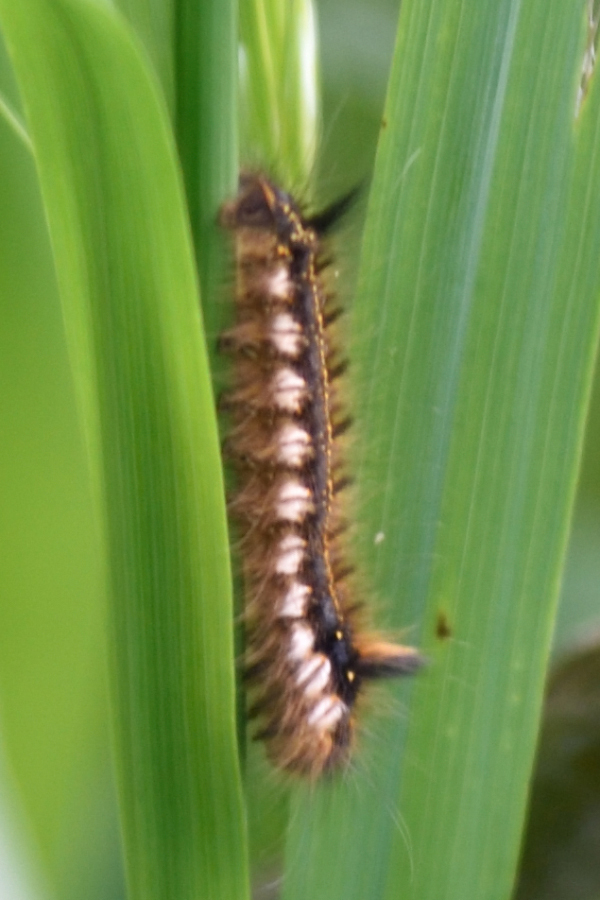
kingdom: Animalia
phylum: Arthropoda
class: Insecta
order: Lepidoptera
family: Lasiocampidae
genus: Euthrix
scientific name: Euthrix potatoria
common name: Drinker
